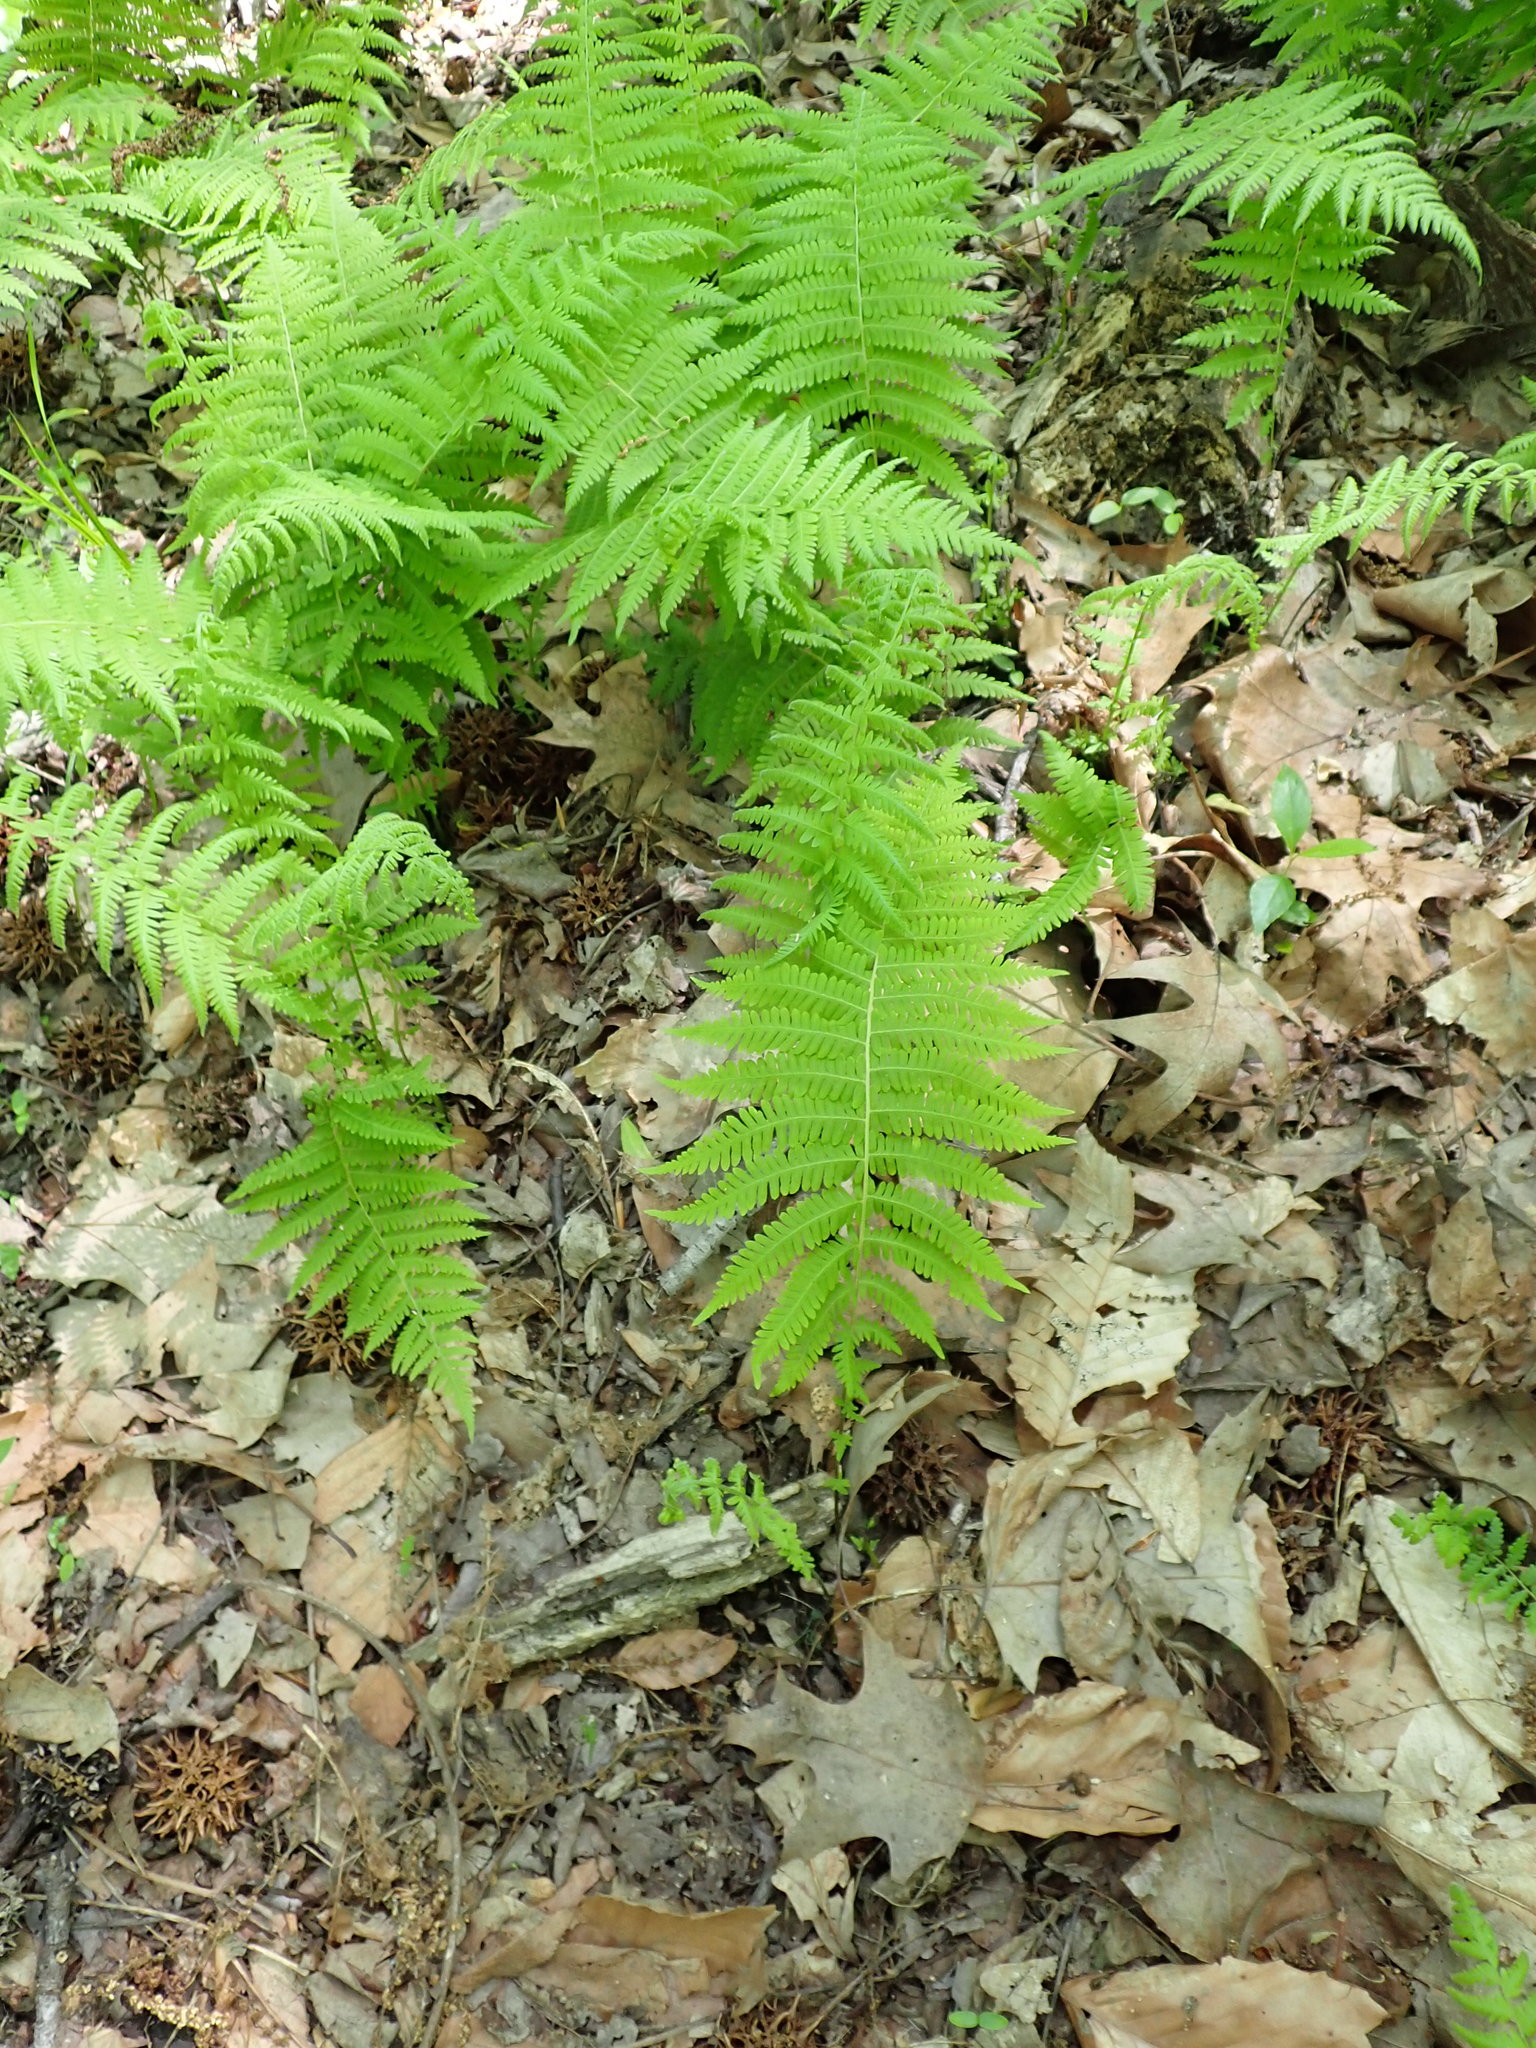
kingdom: Plantae
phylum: Tracheophyta
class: Polypodiopsida
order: Polypodiales
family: Thelypteridaceae
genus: Amauropelta
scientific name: Amauropelta noveboracensis
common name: New york fern
